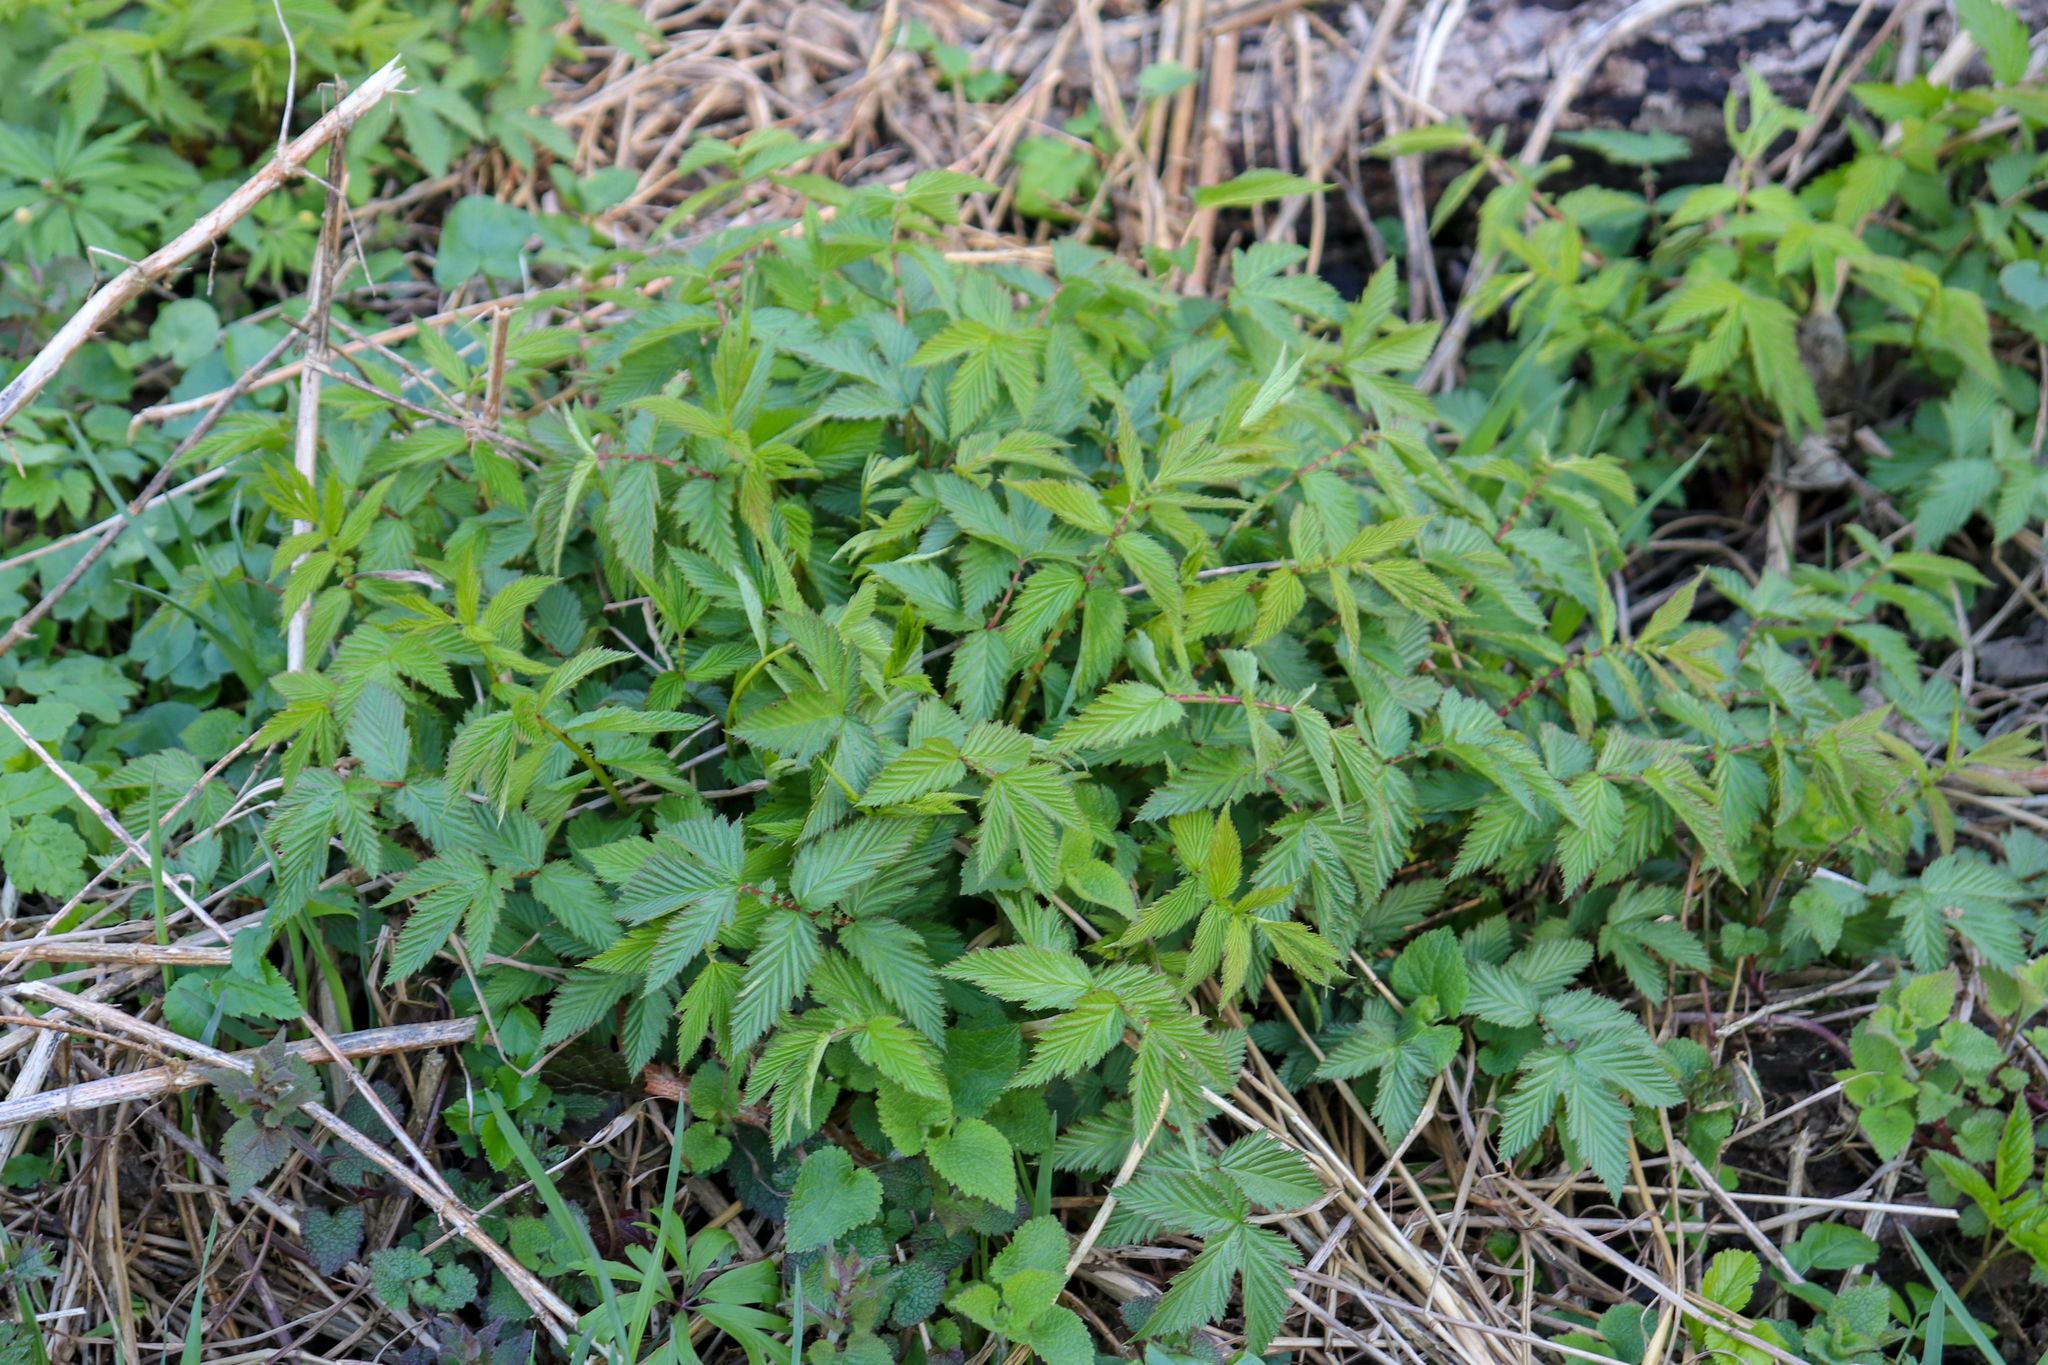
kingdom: Plantae
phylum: Tracheophyta
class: Magnoliopsida
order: Rosales
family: Rosaceae
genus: Filipendula
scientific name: Filipendula ulmaria
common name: Meadowsweet
